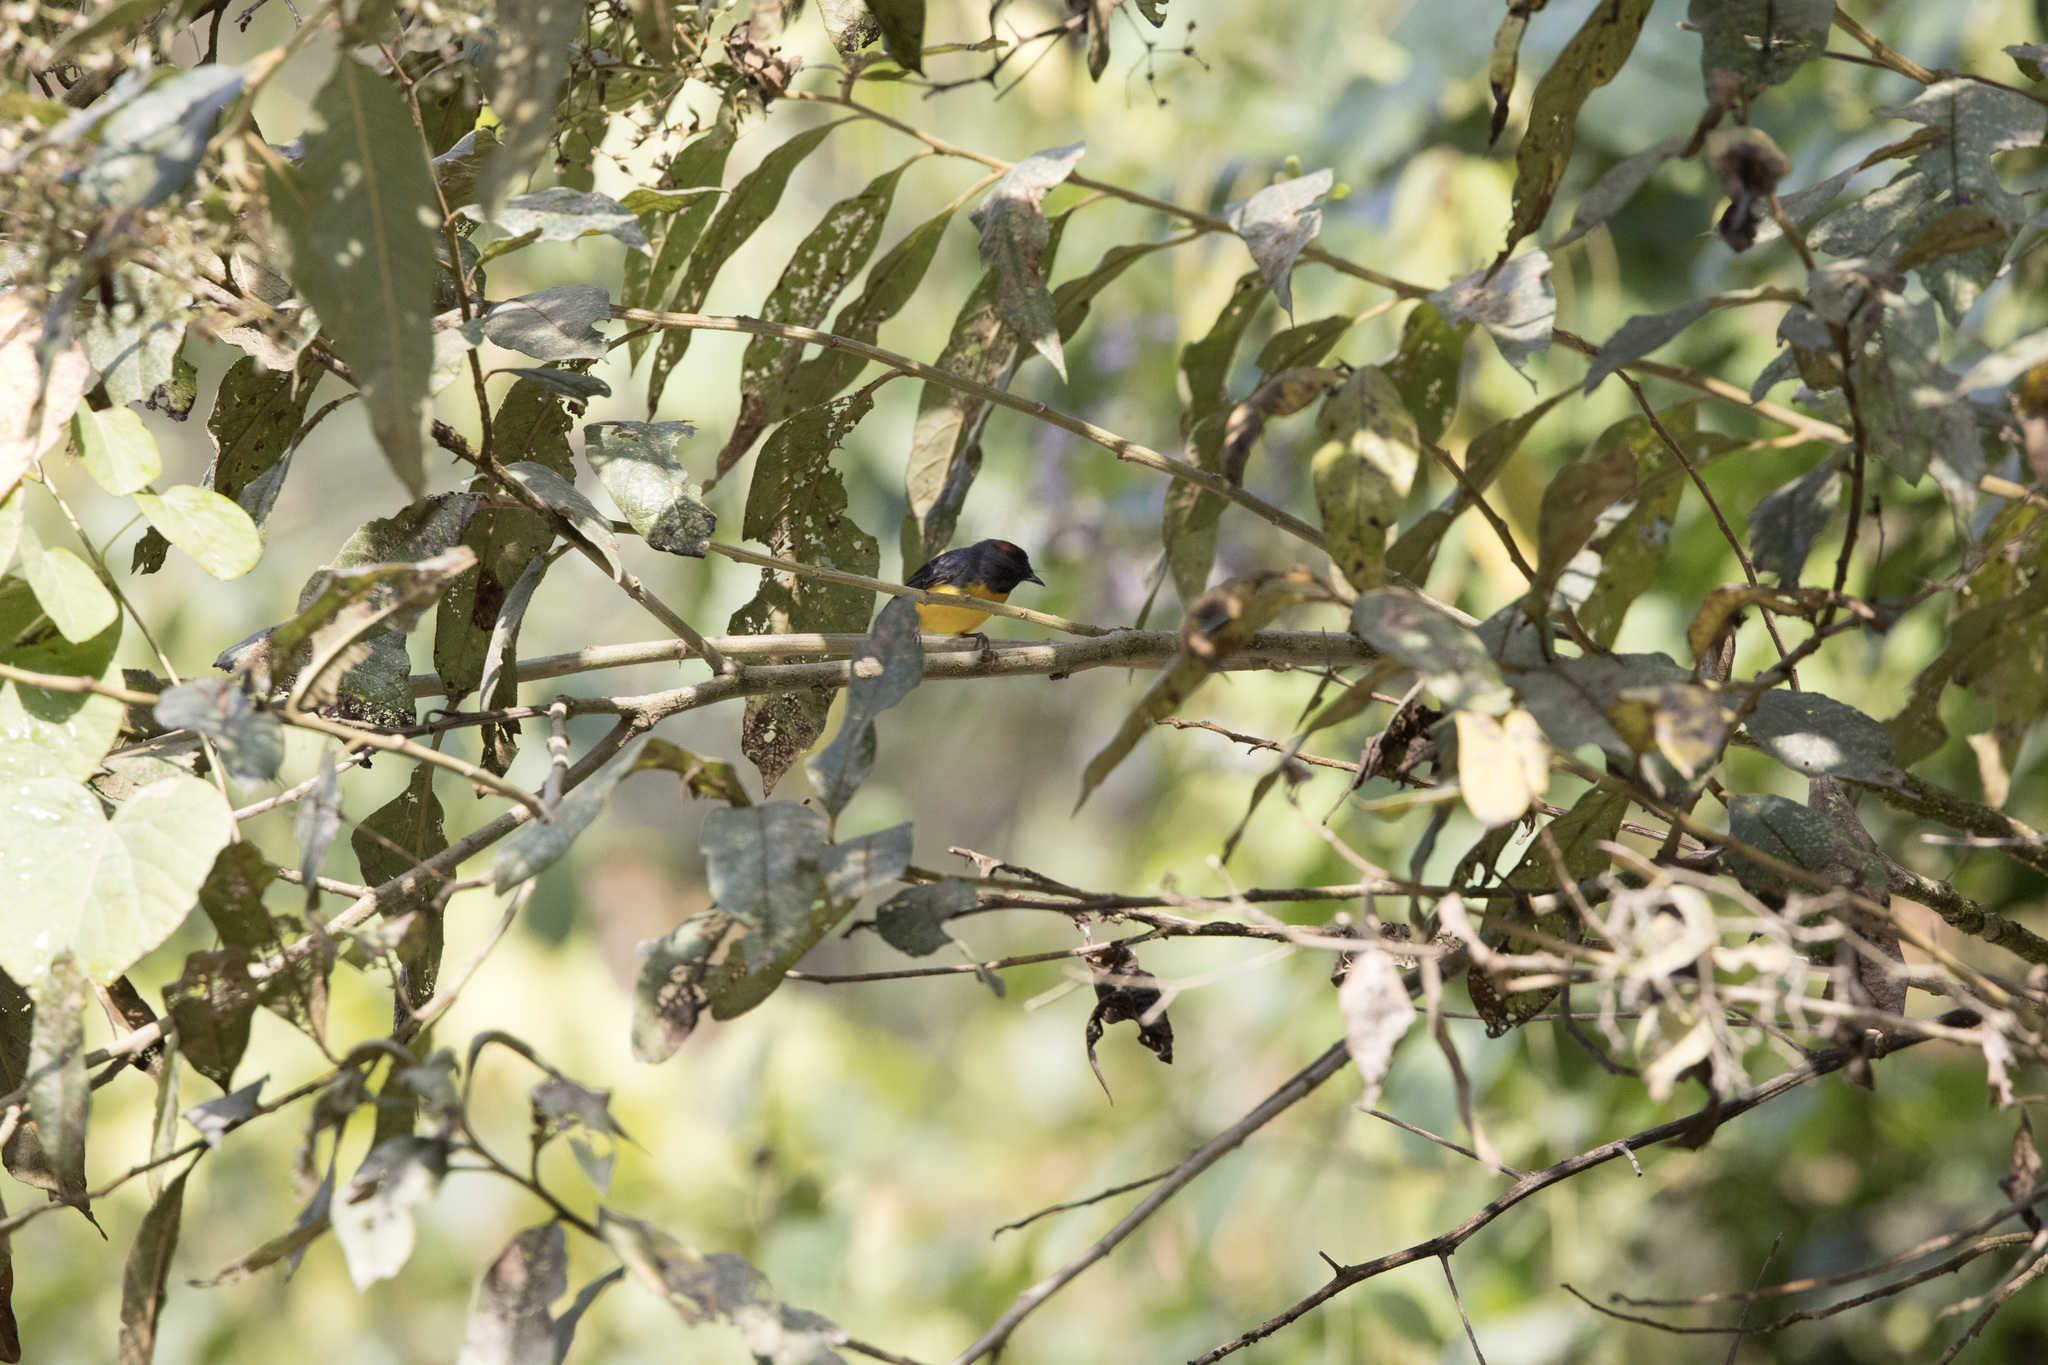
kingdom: Animalia
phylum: Chordata
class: Aves
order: Passeriformes
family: Parulidae
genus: Myioborus
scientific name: Myioborus miniatus
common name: Slate-throated redstart
